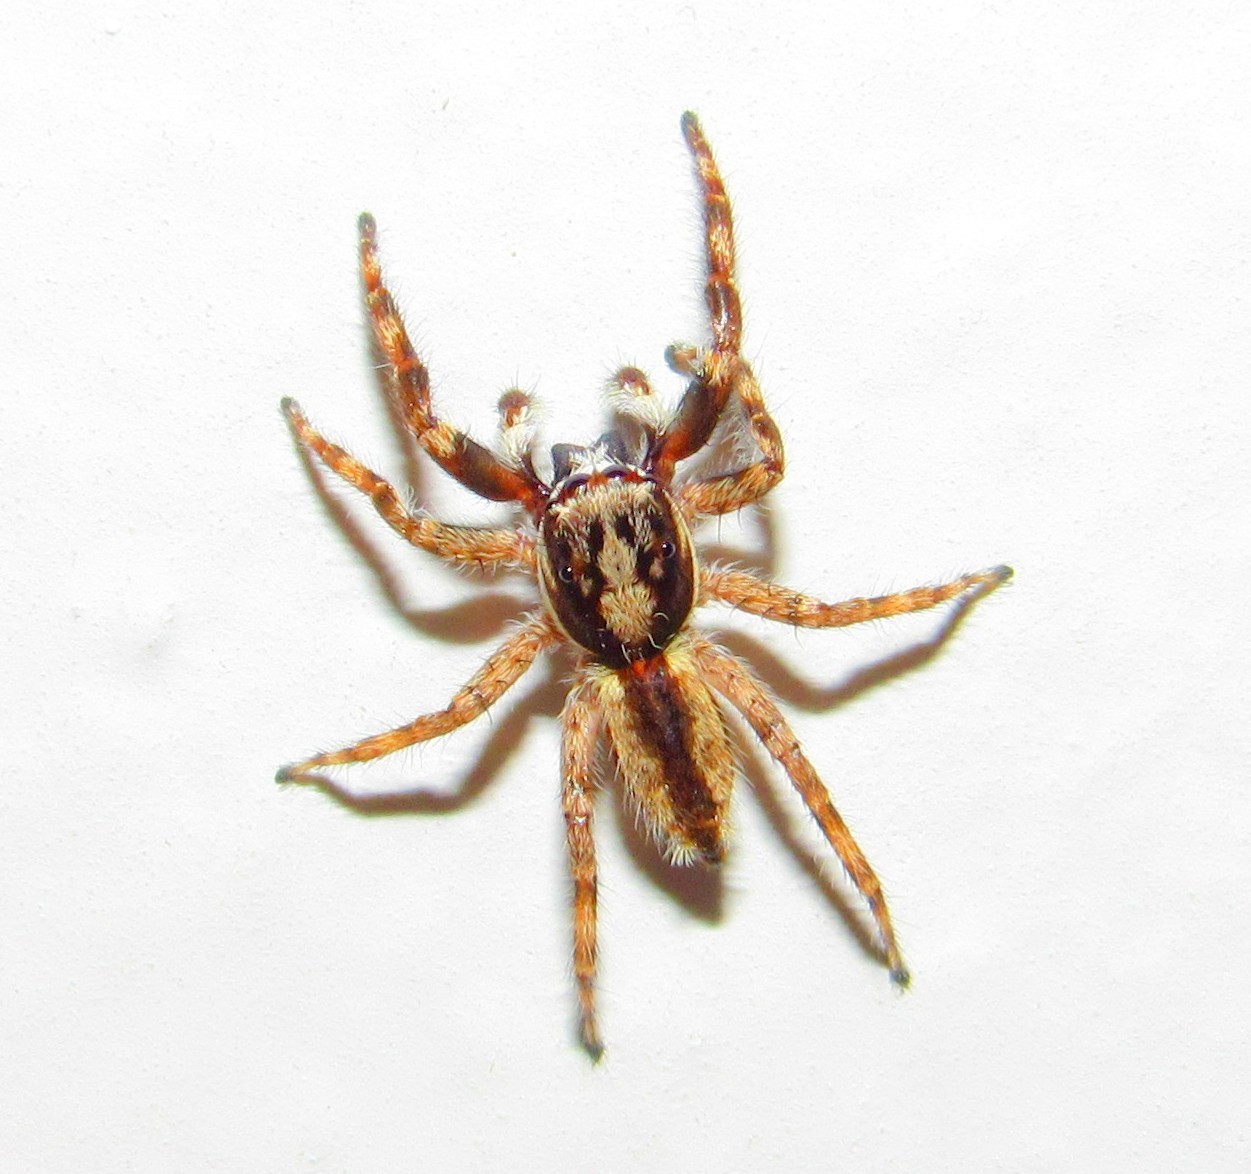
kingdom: Animalia
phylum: Arthropoda
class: Arachnida
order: Araneae
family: Salticidae
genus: Menemerus
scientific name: Menemerus bivittatus
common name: Gray wall jumper
